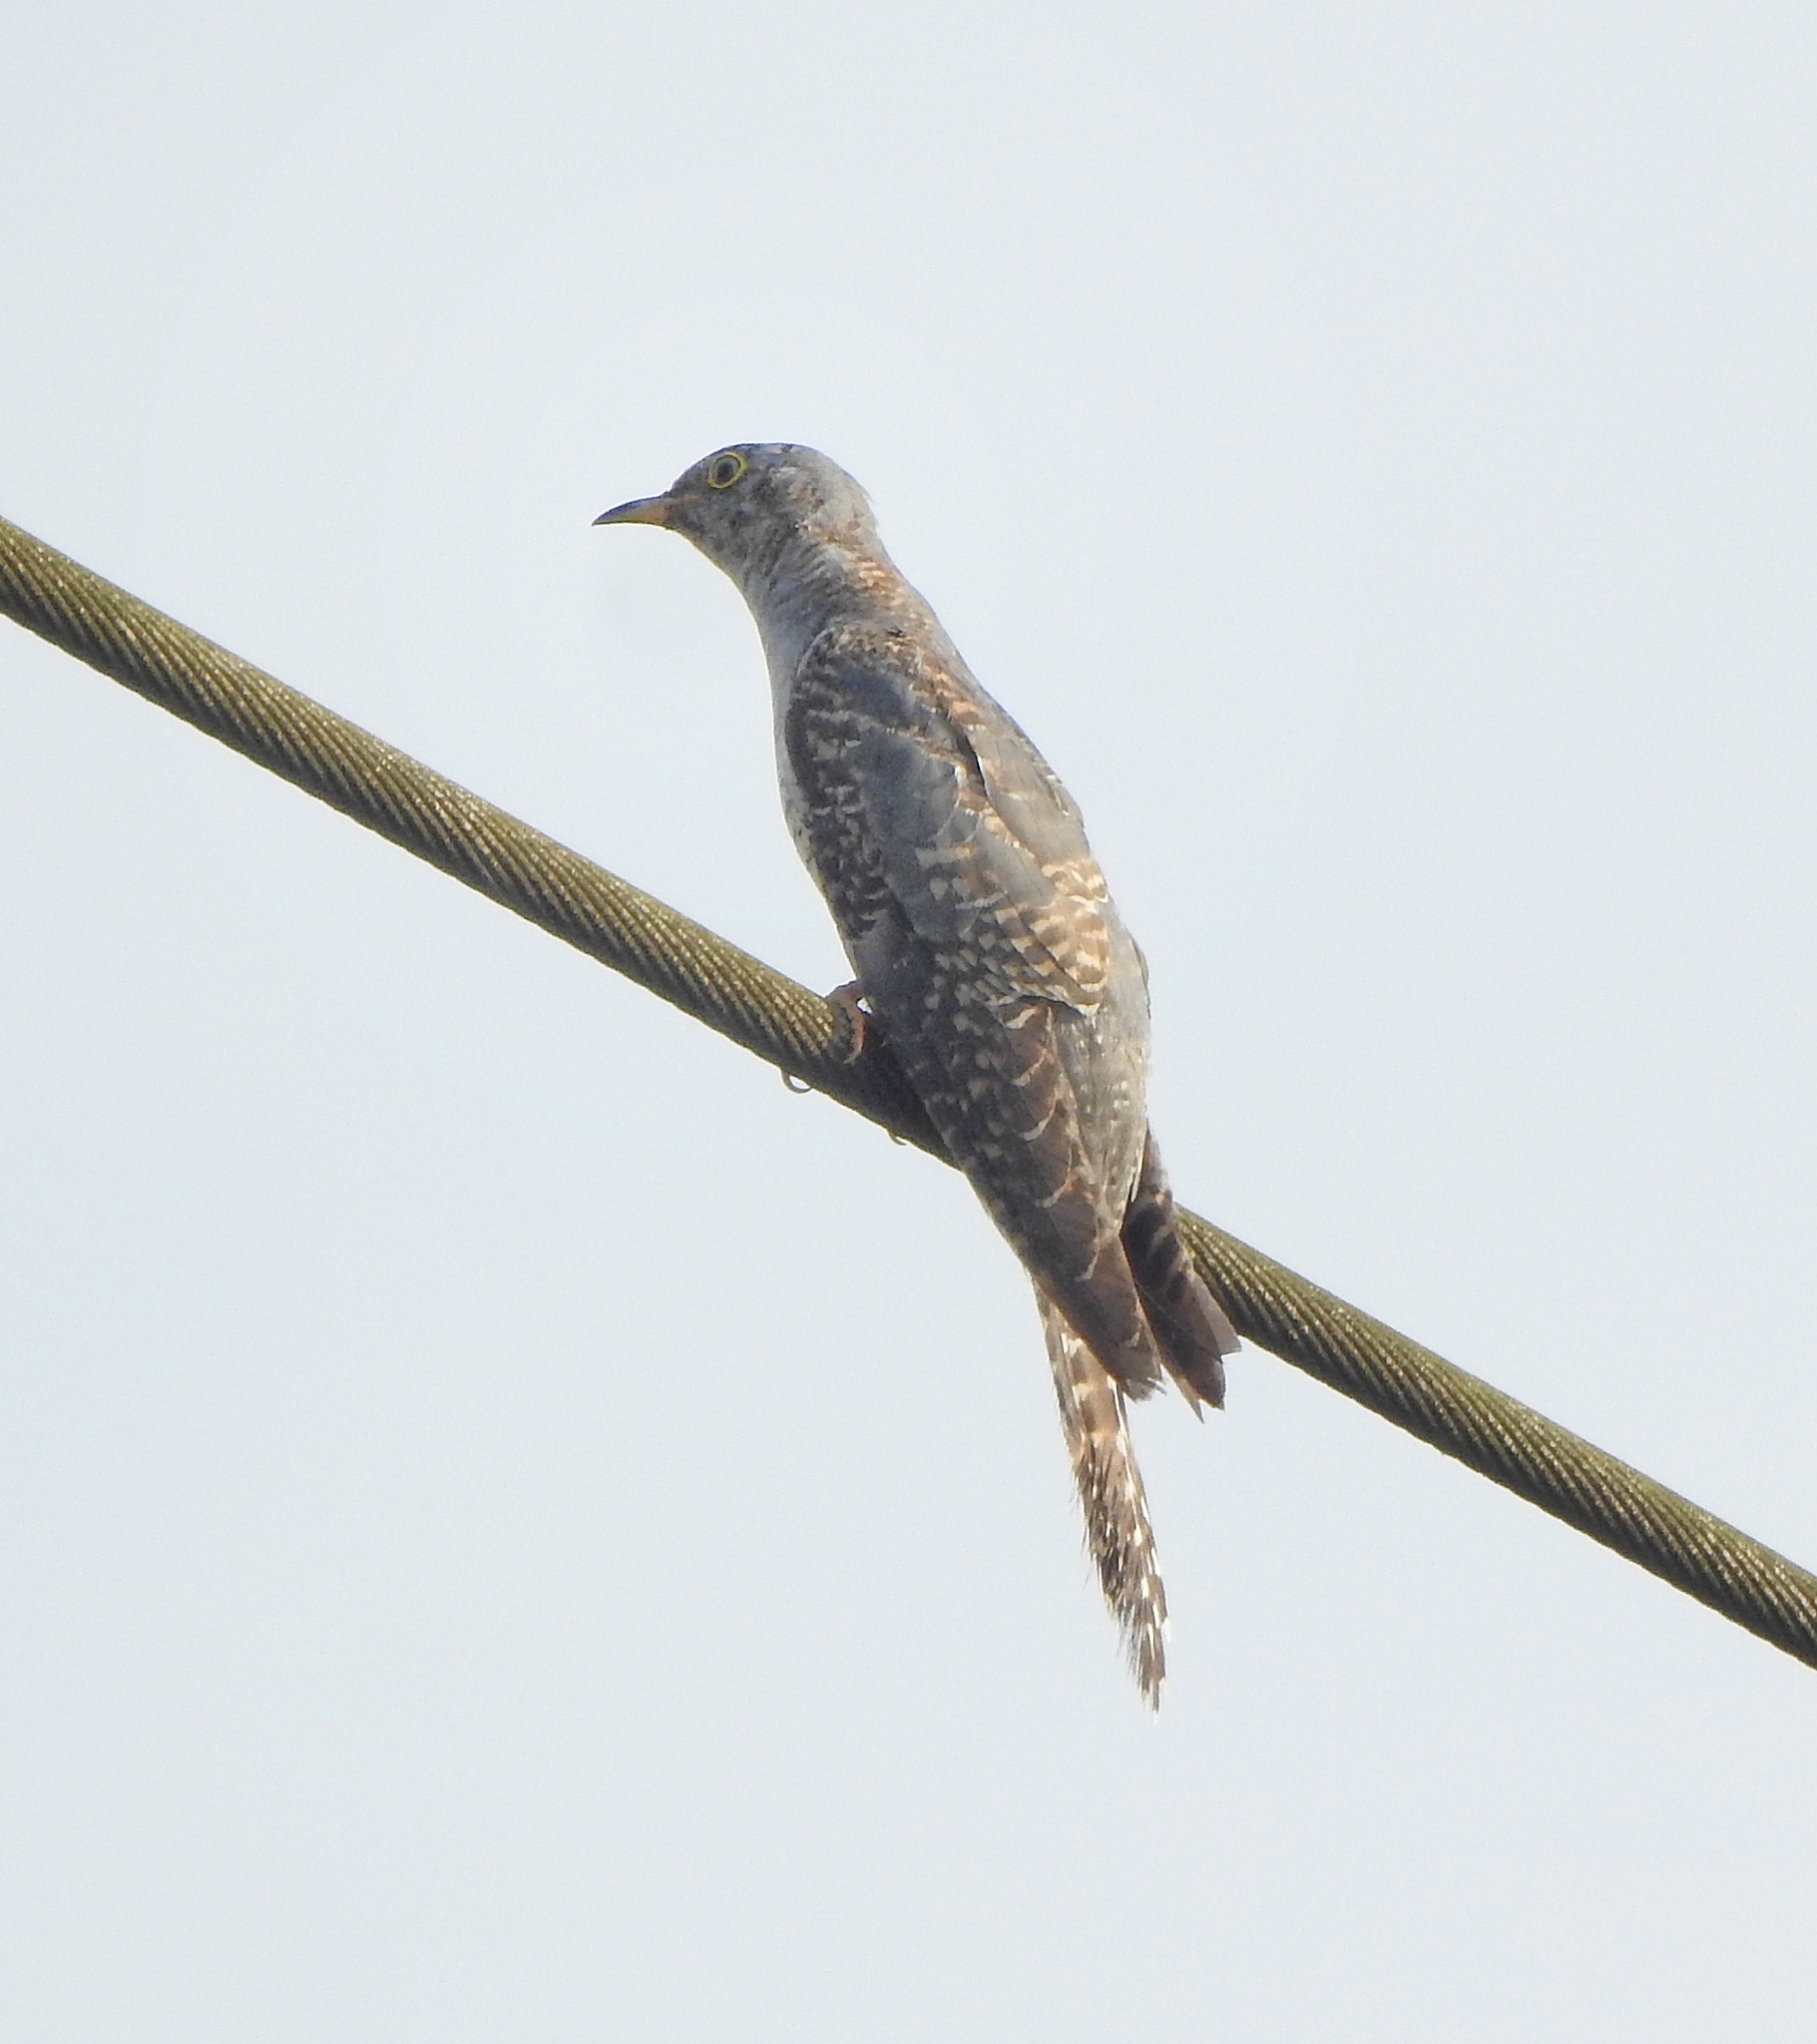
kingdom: Animalia
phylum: Chordata
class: Aves
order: Cuculiformes
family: Cuculidae
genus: Cuculus
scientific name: Cuculus canorus
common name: Common cuckoo
